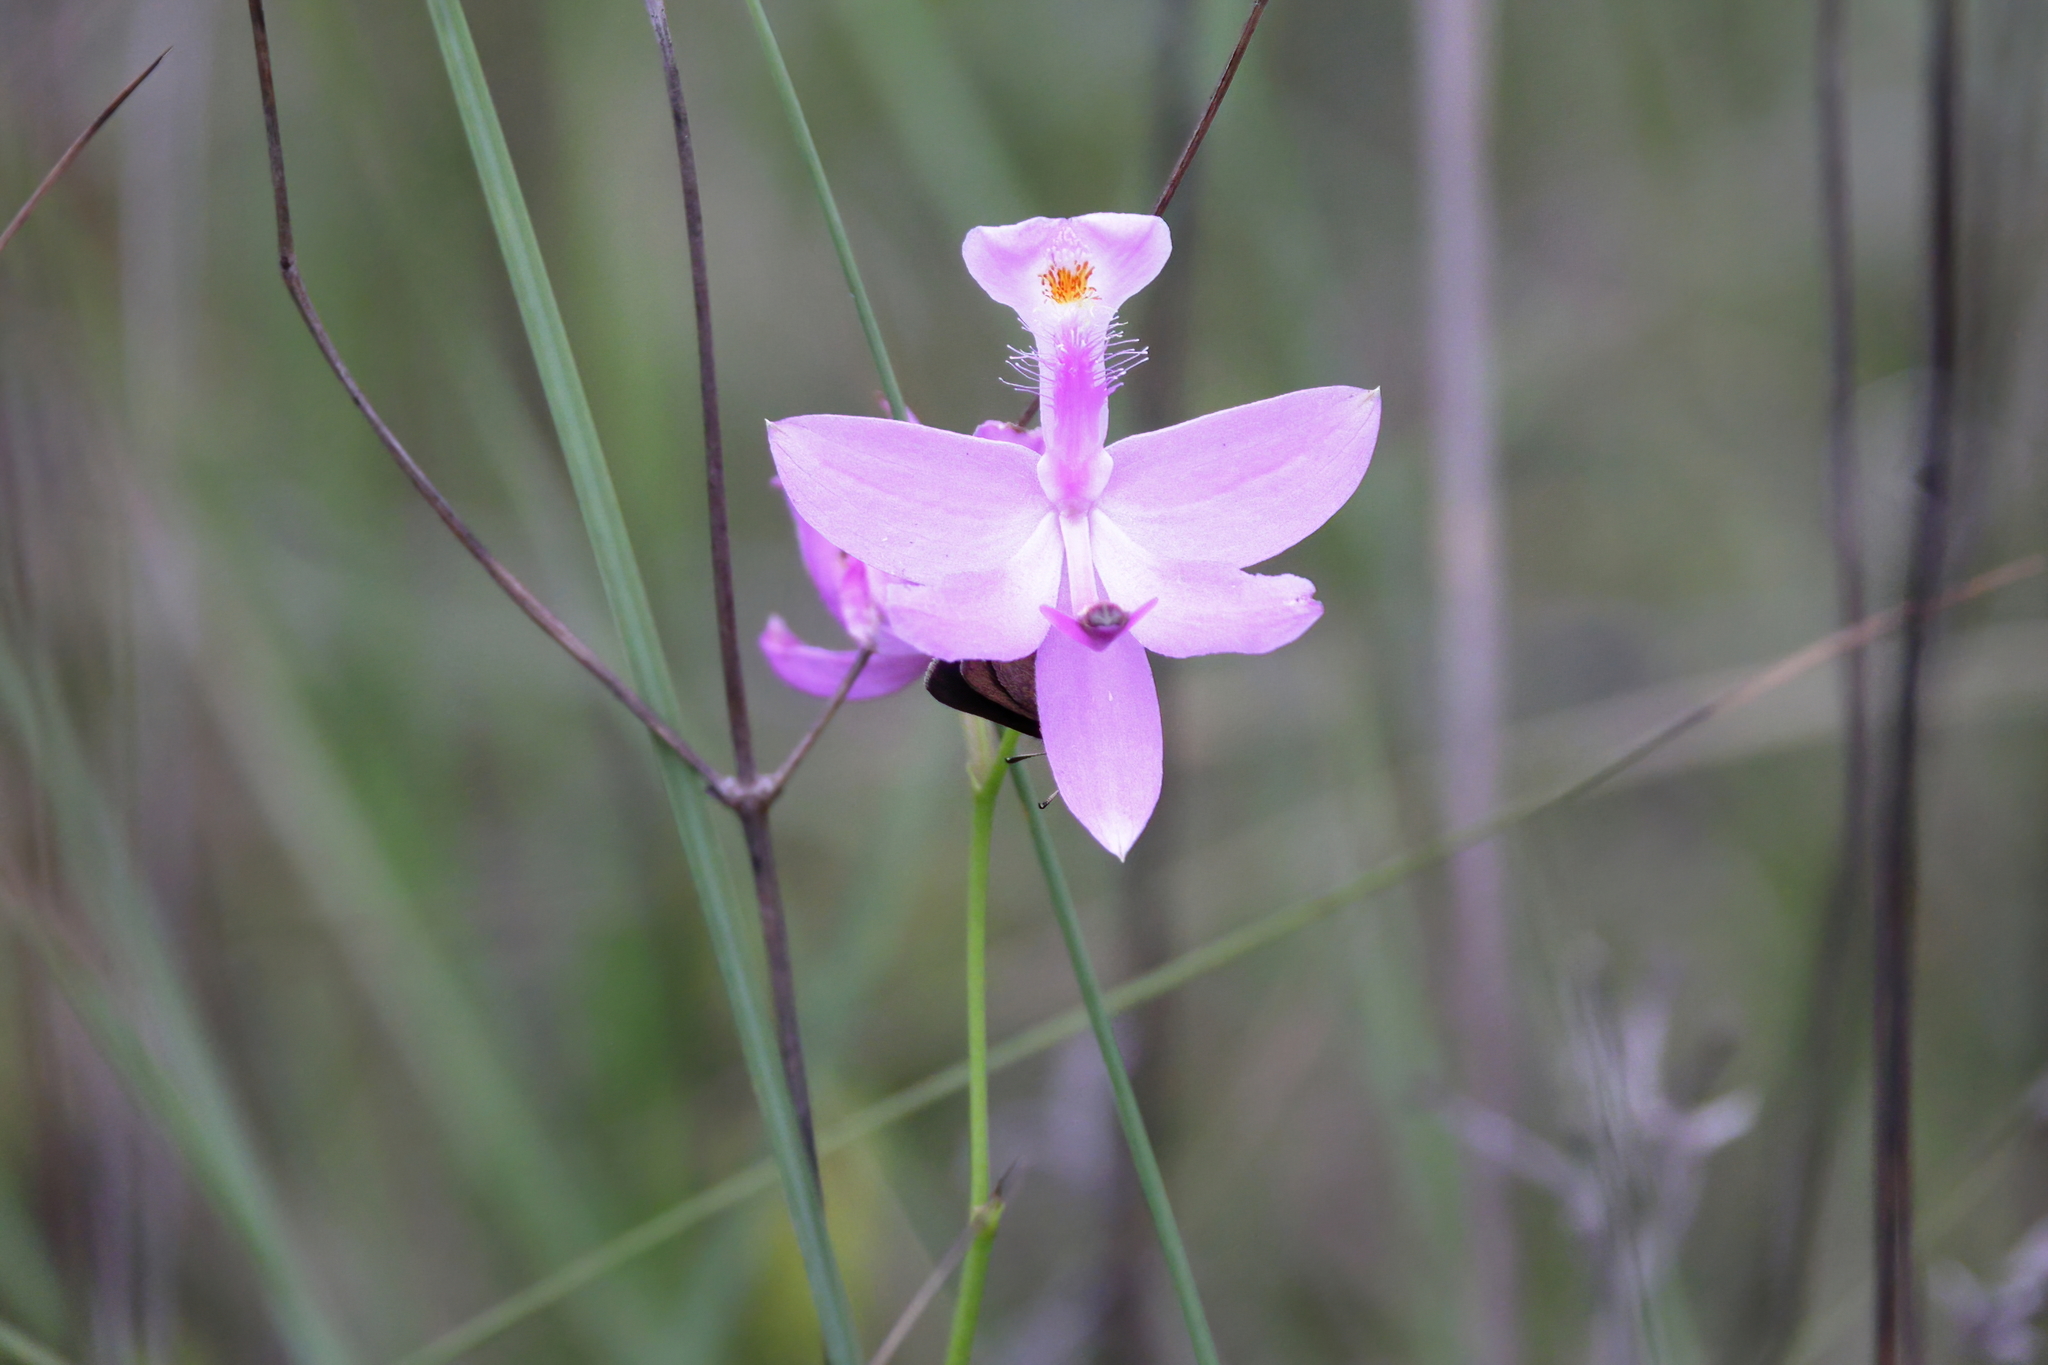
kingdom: Plantae
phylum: Tracheophyta
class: Liliopsida
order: Asparagales
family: Orchidaceae
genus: Calopogon
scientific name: Calopogon tuberosus
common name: Grass-pink
